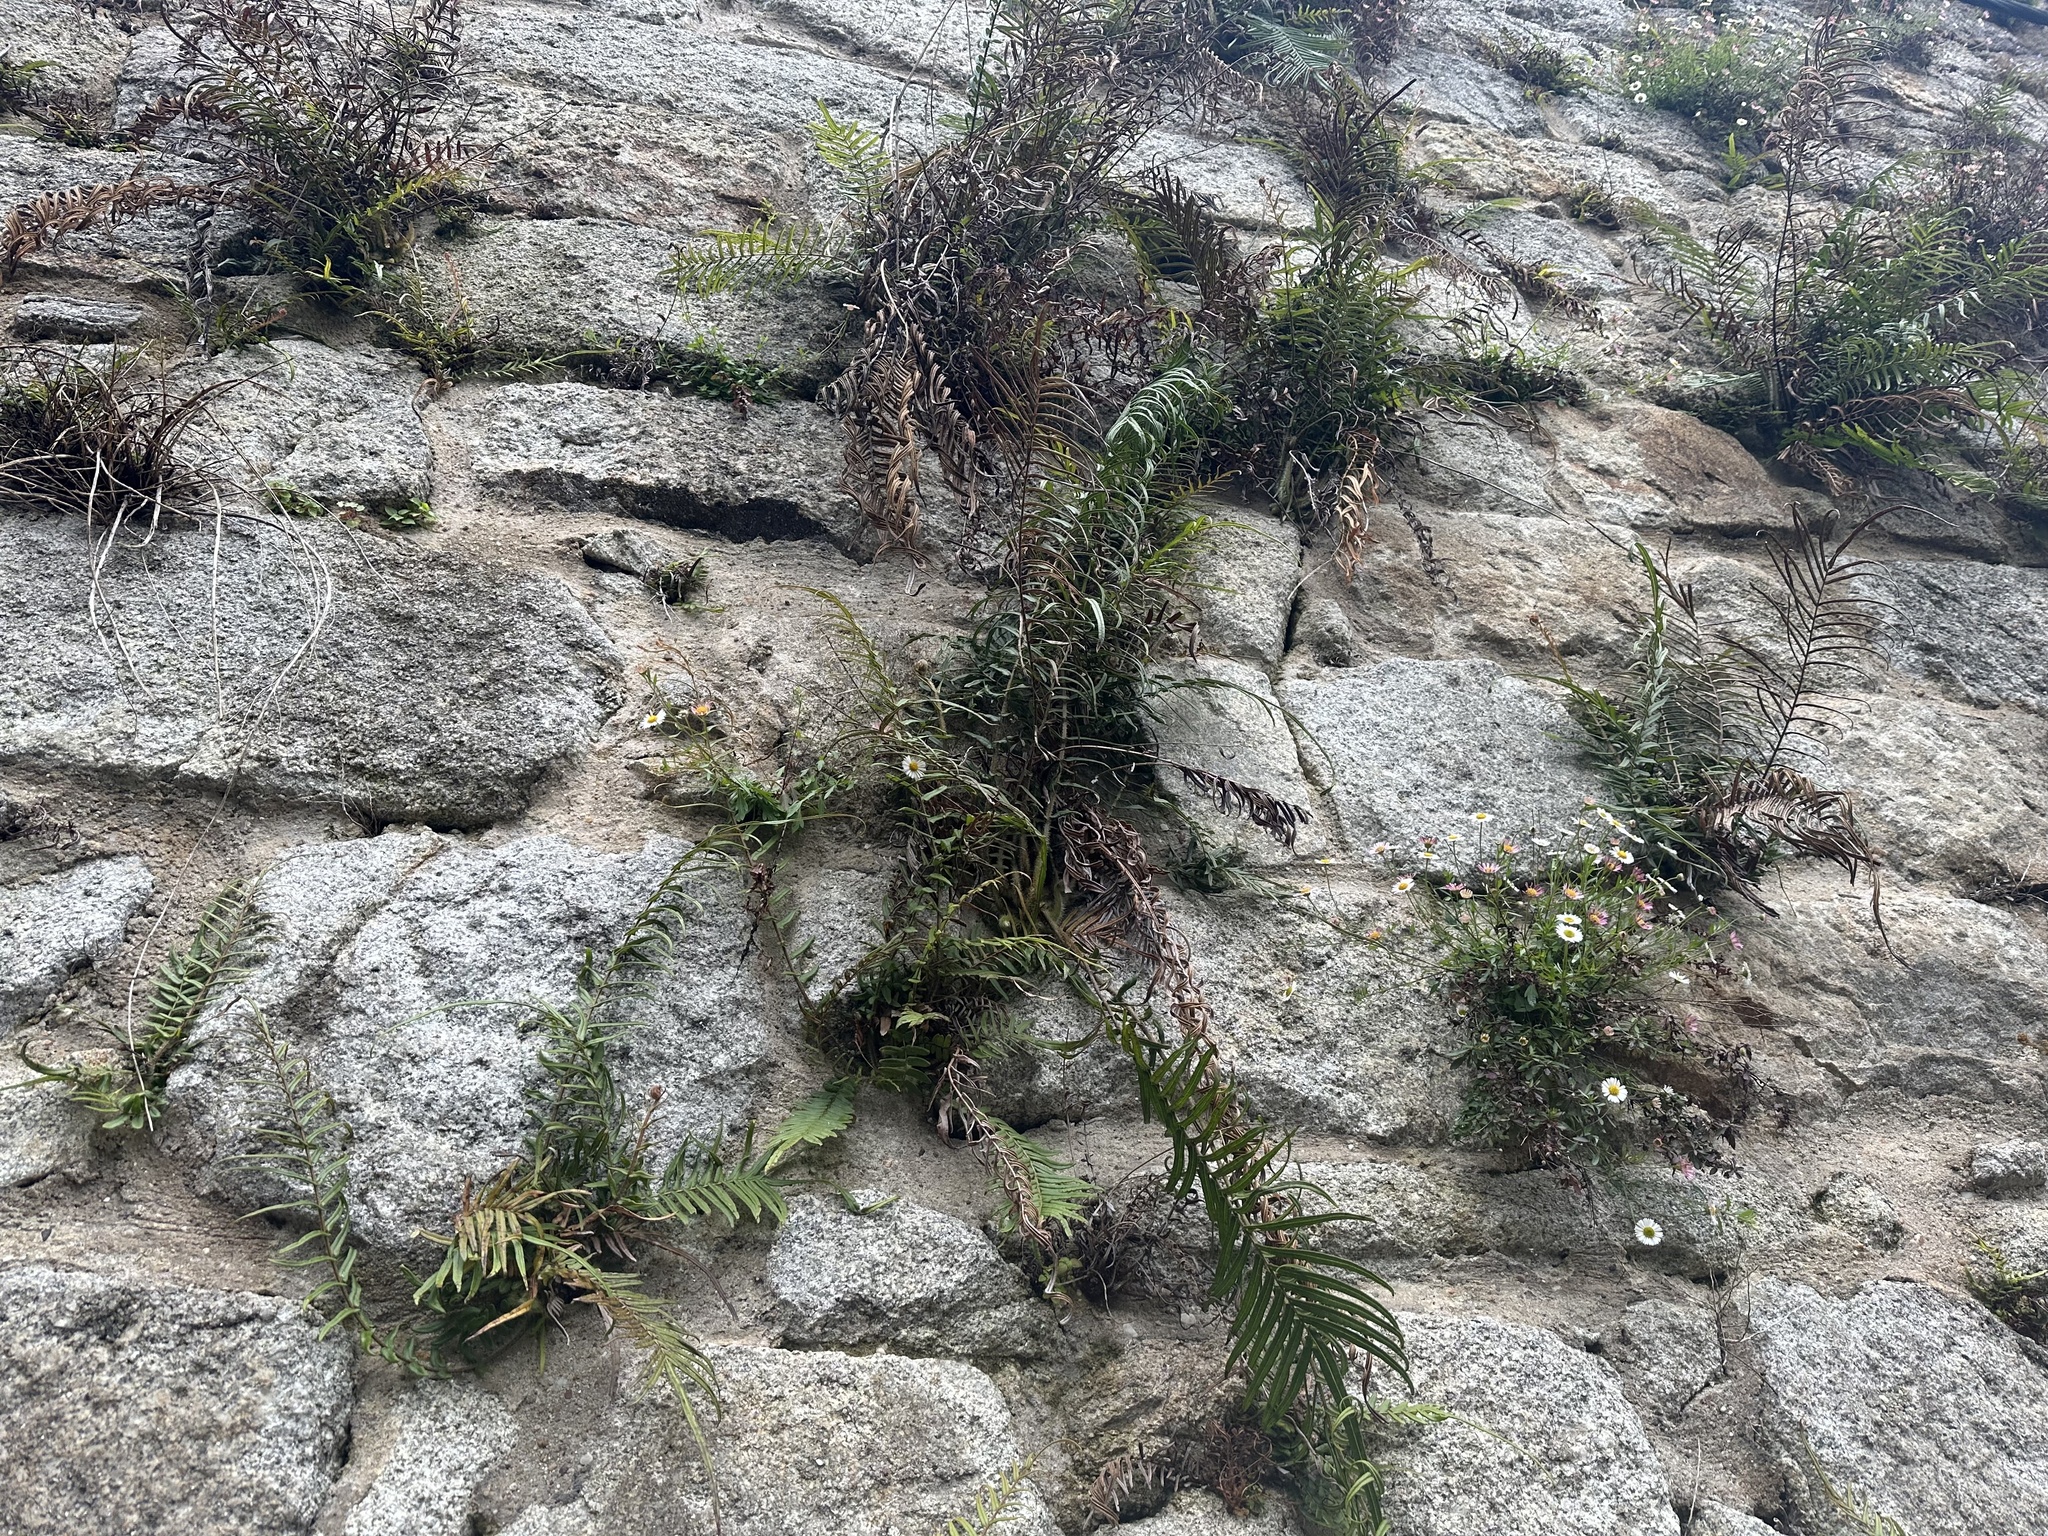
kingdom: Plantae
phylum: Tracheophyta
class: Polypodiopsida
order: Polypodiales
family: Pteridaceae
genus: Pteris
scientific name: Pteris vittata
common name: Ladder brake
